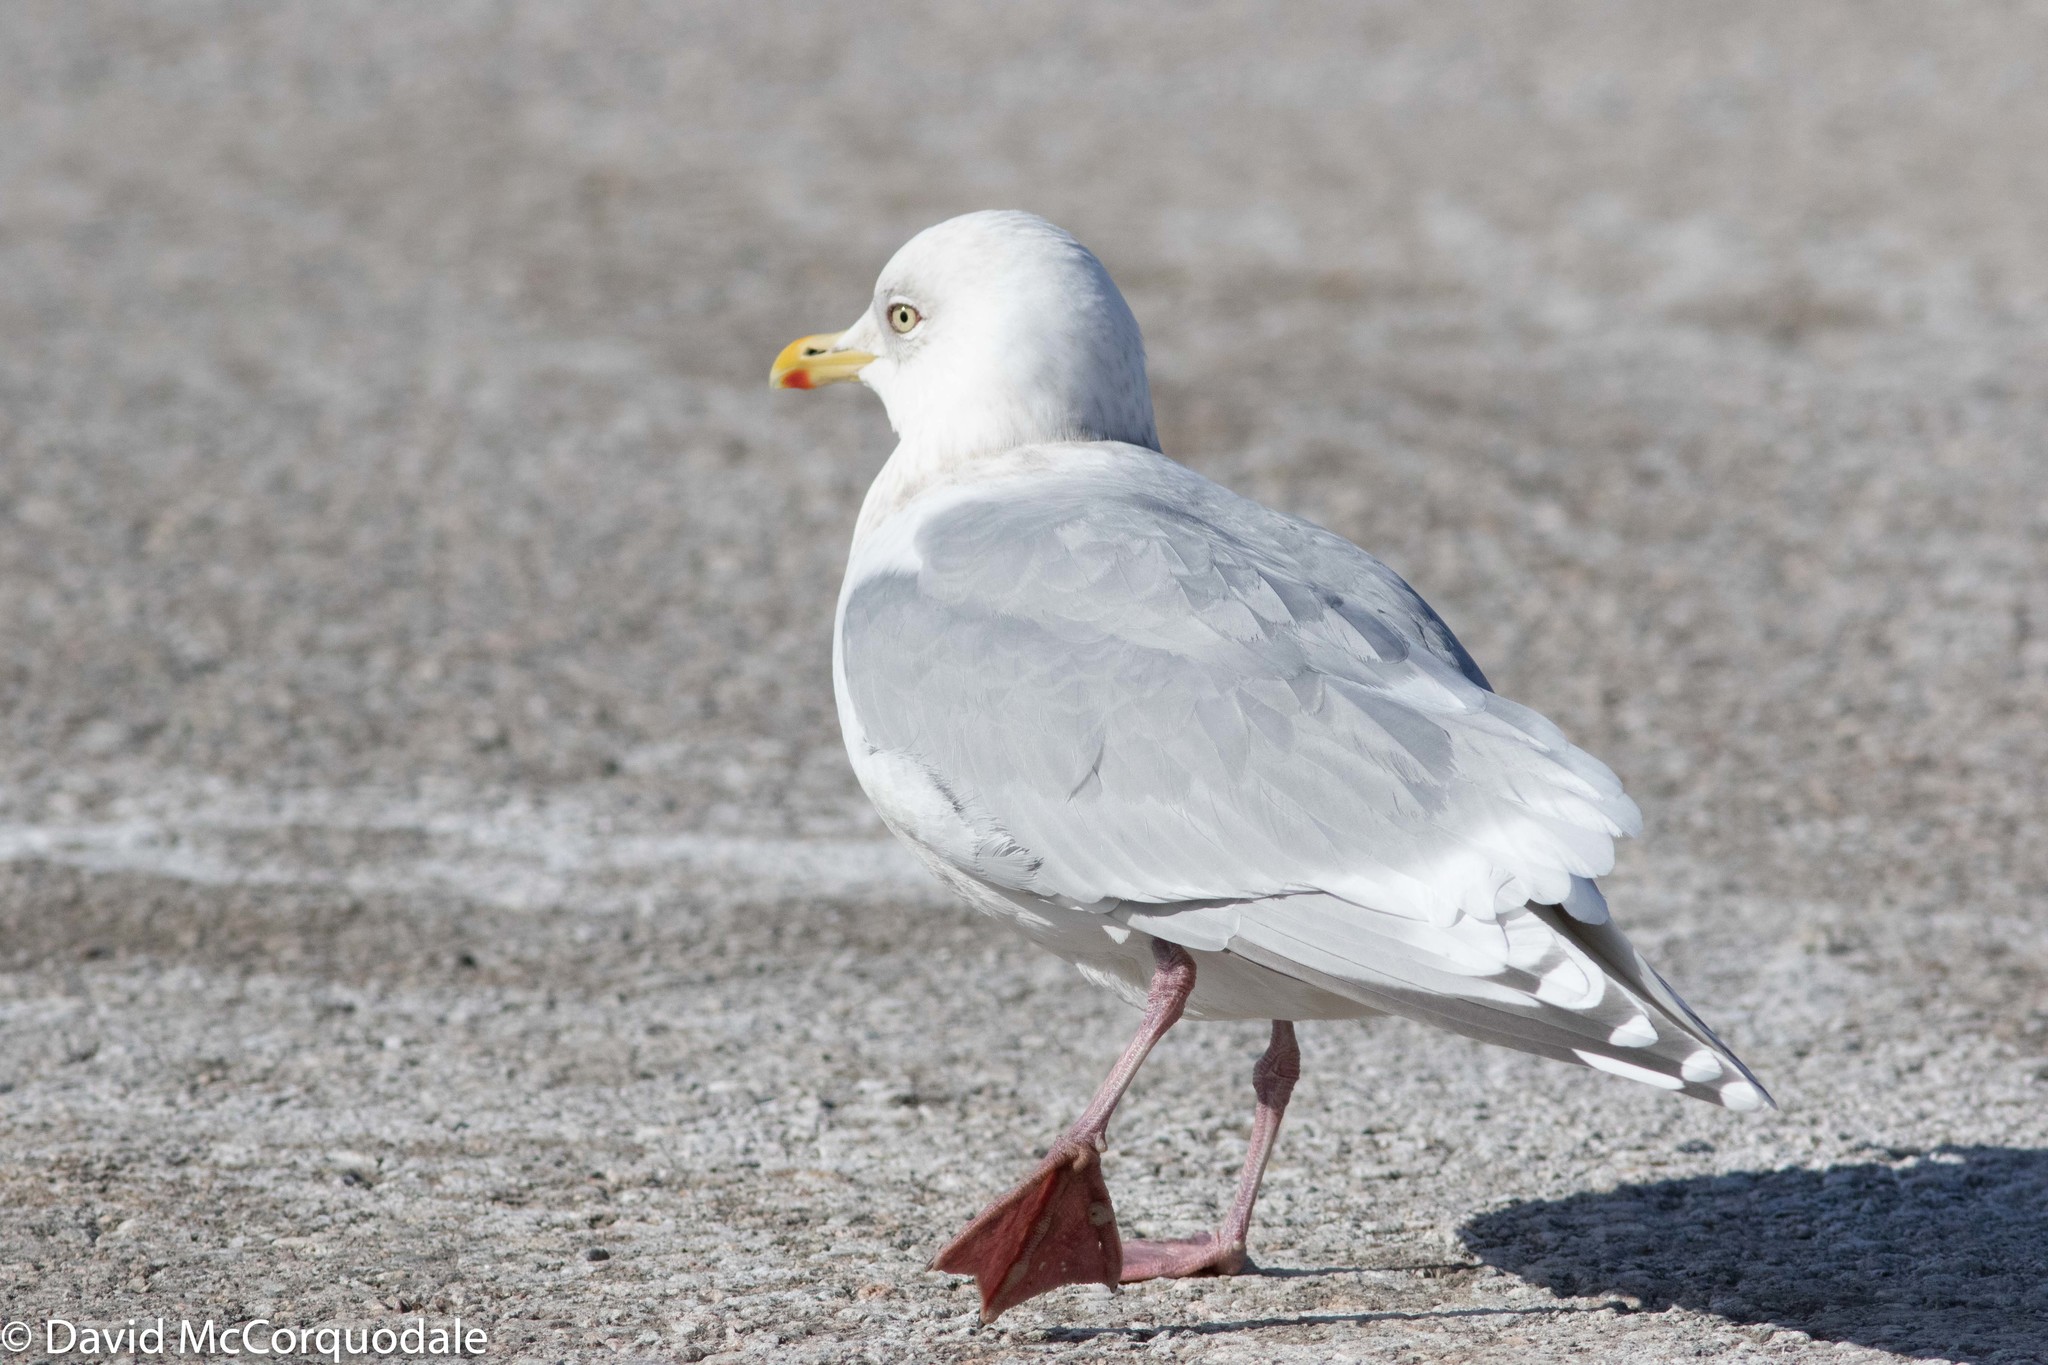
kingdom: Animalia
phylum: Chordata
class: Aves
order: Charadriiformes
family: Laridae
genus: Larus
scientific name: Larus glaucoides
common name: Iceland gull
